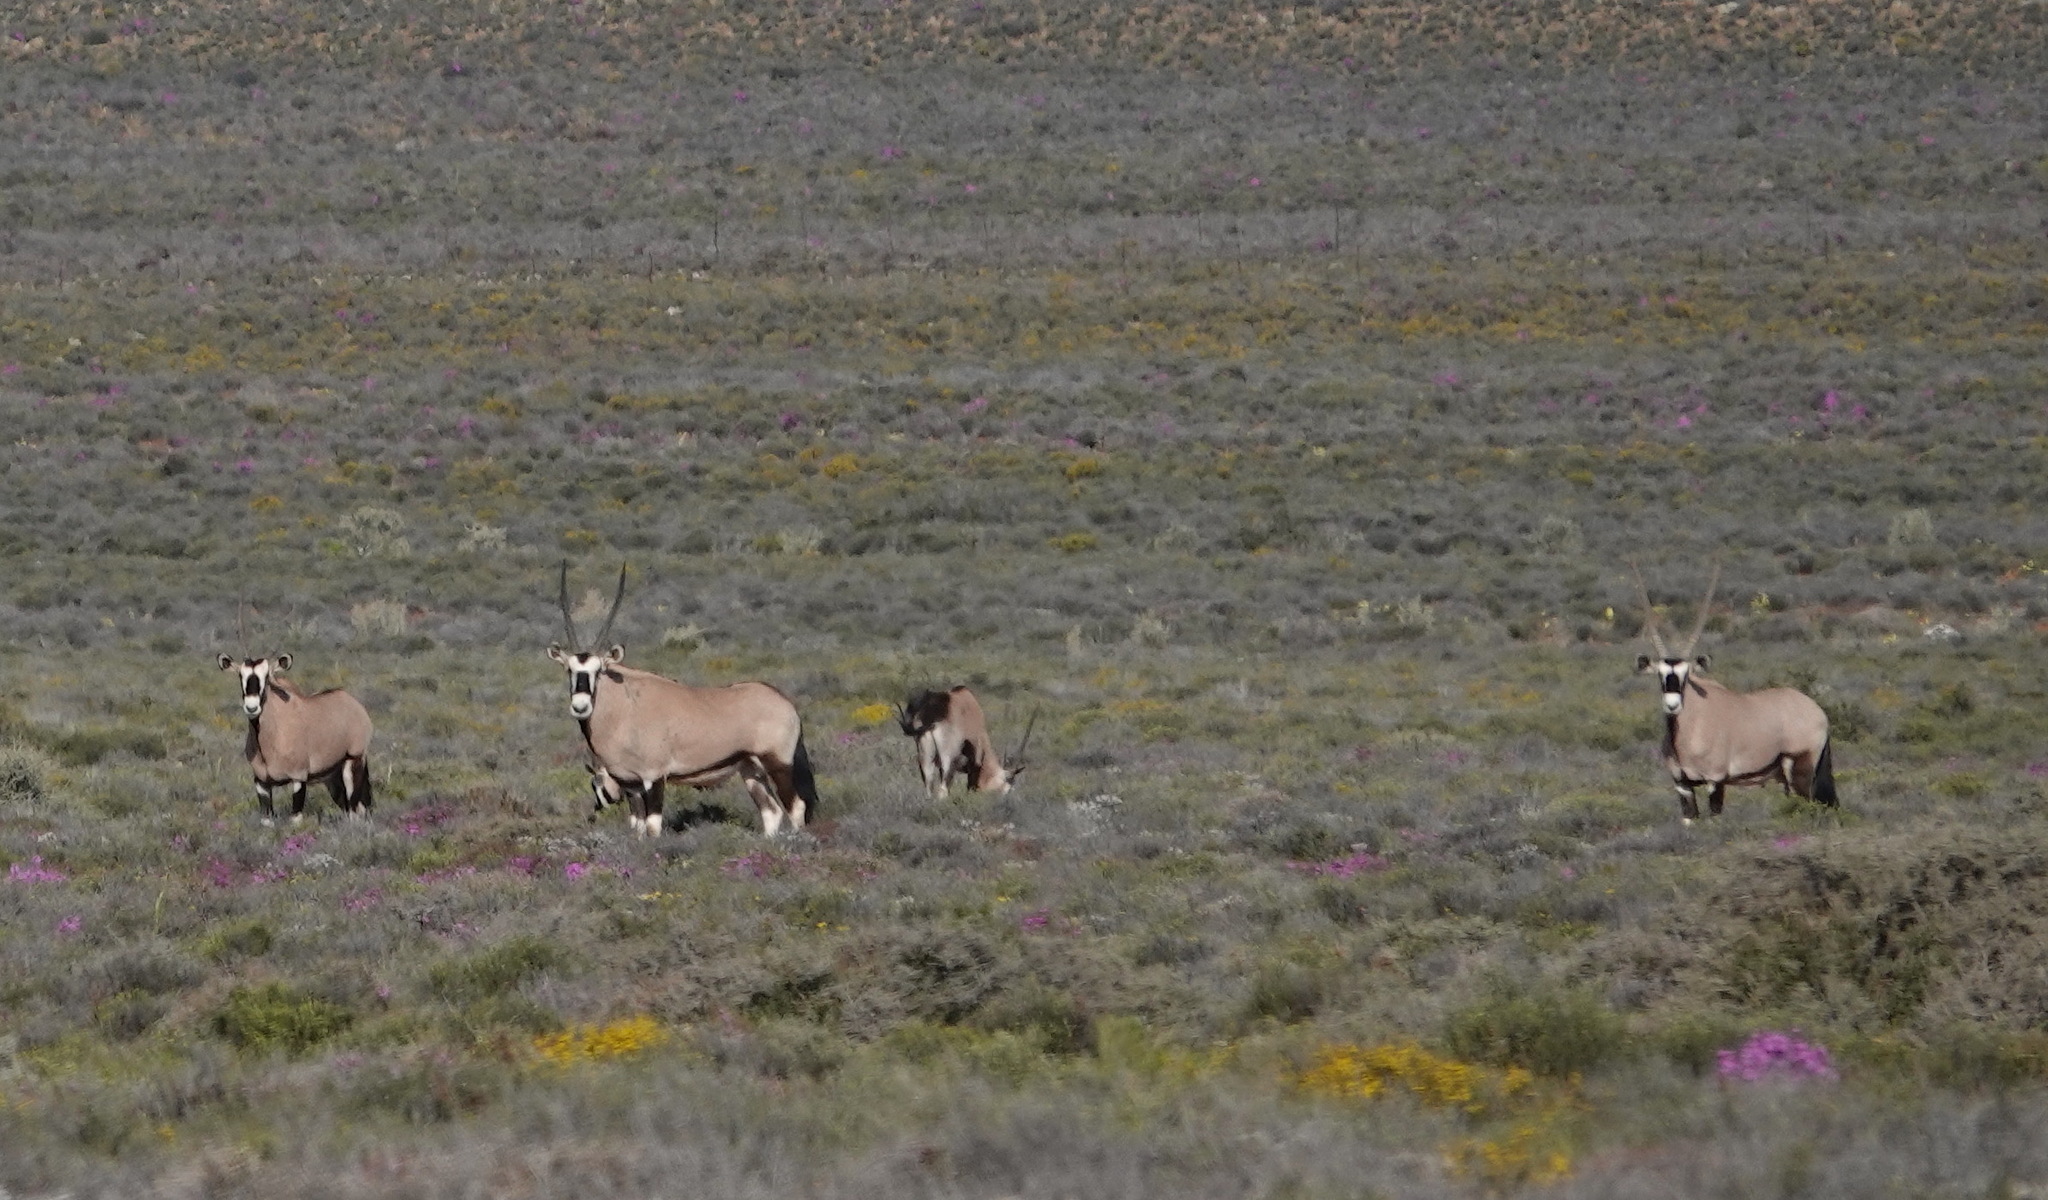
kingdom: Animalia
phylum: Chordata
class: Mammalia
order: Artiodactyla
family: Bovidae
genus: Oryx
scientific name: Oryx gazella
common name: Gemsbok
